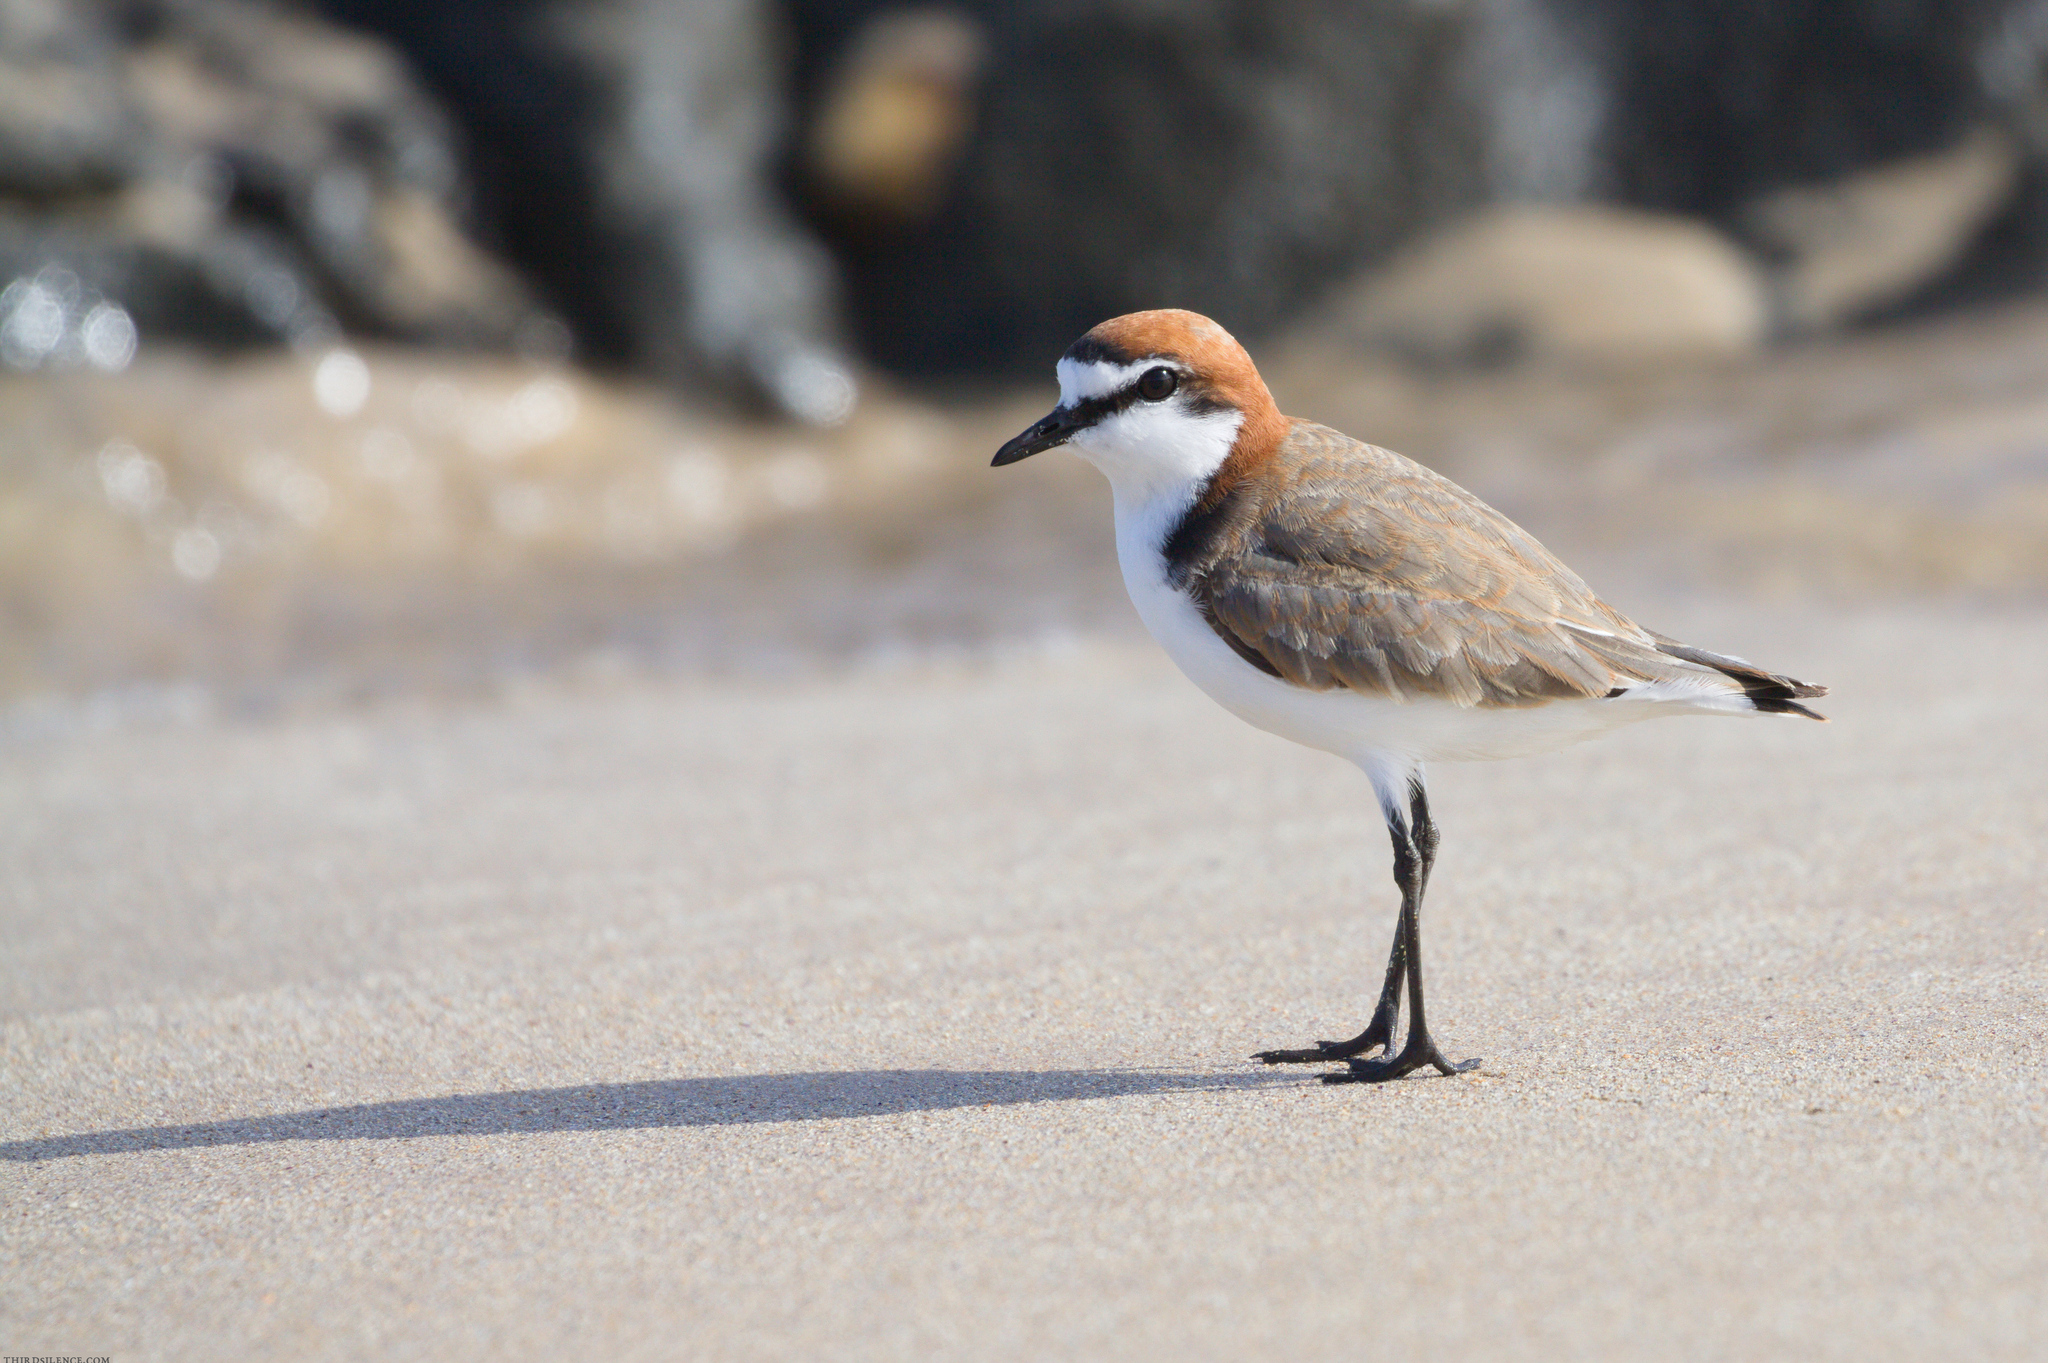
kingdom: Animalia
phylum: Chordata
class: Aves
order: Charadriiformes
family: Charadriidae
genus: Anarhynchus
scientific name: Anarhynchus
